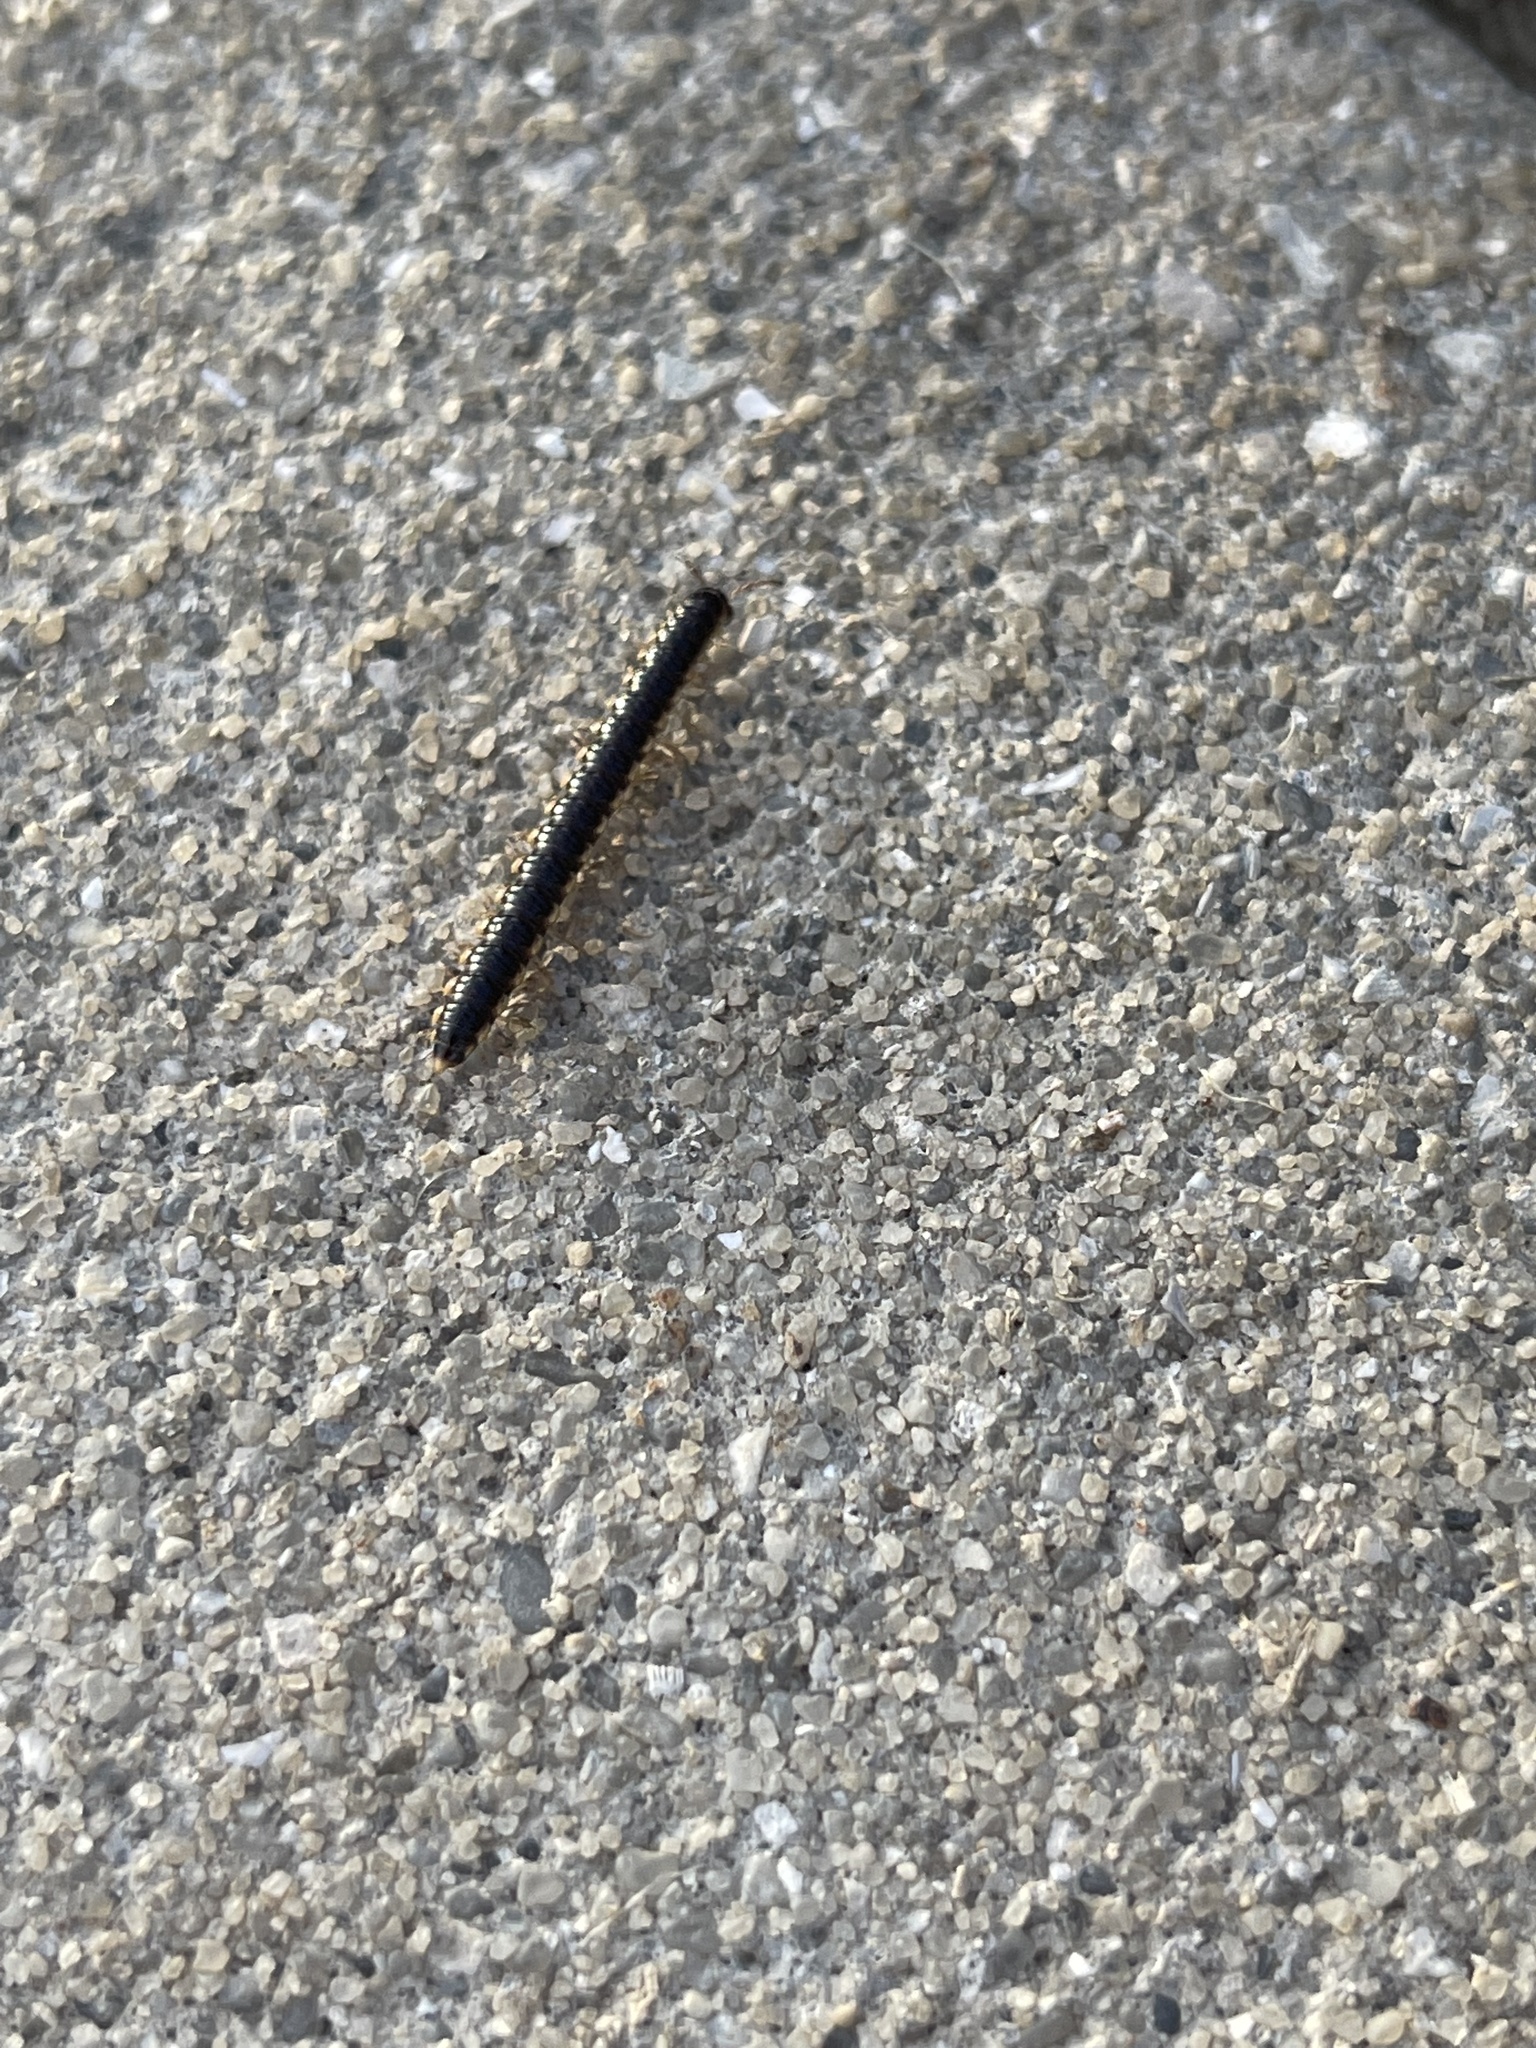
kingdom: Animalia
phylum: Arthropoda
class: Diplopoda
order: Polydesmida
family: Paradoxosomatidae
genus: Oxidus
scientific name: Oxidus gracilis
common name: Greenhouse millipede
